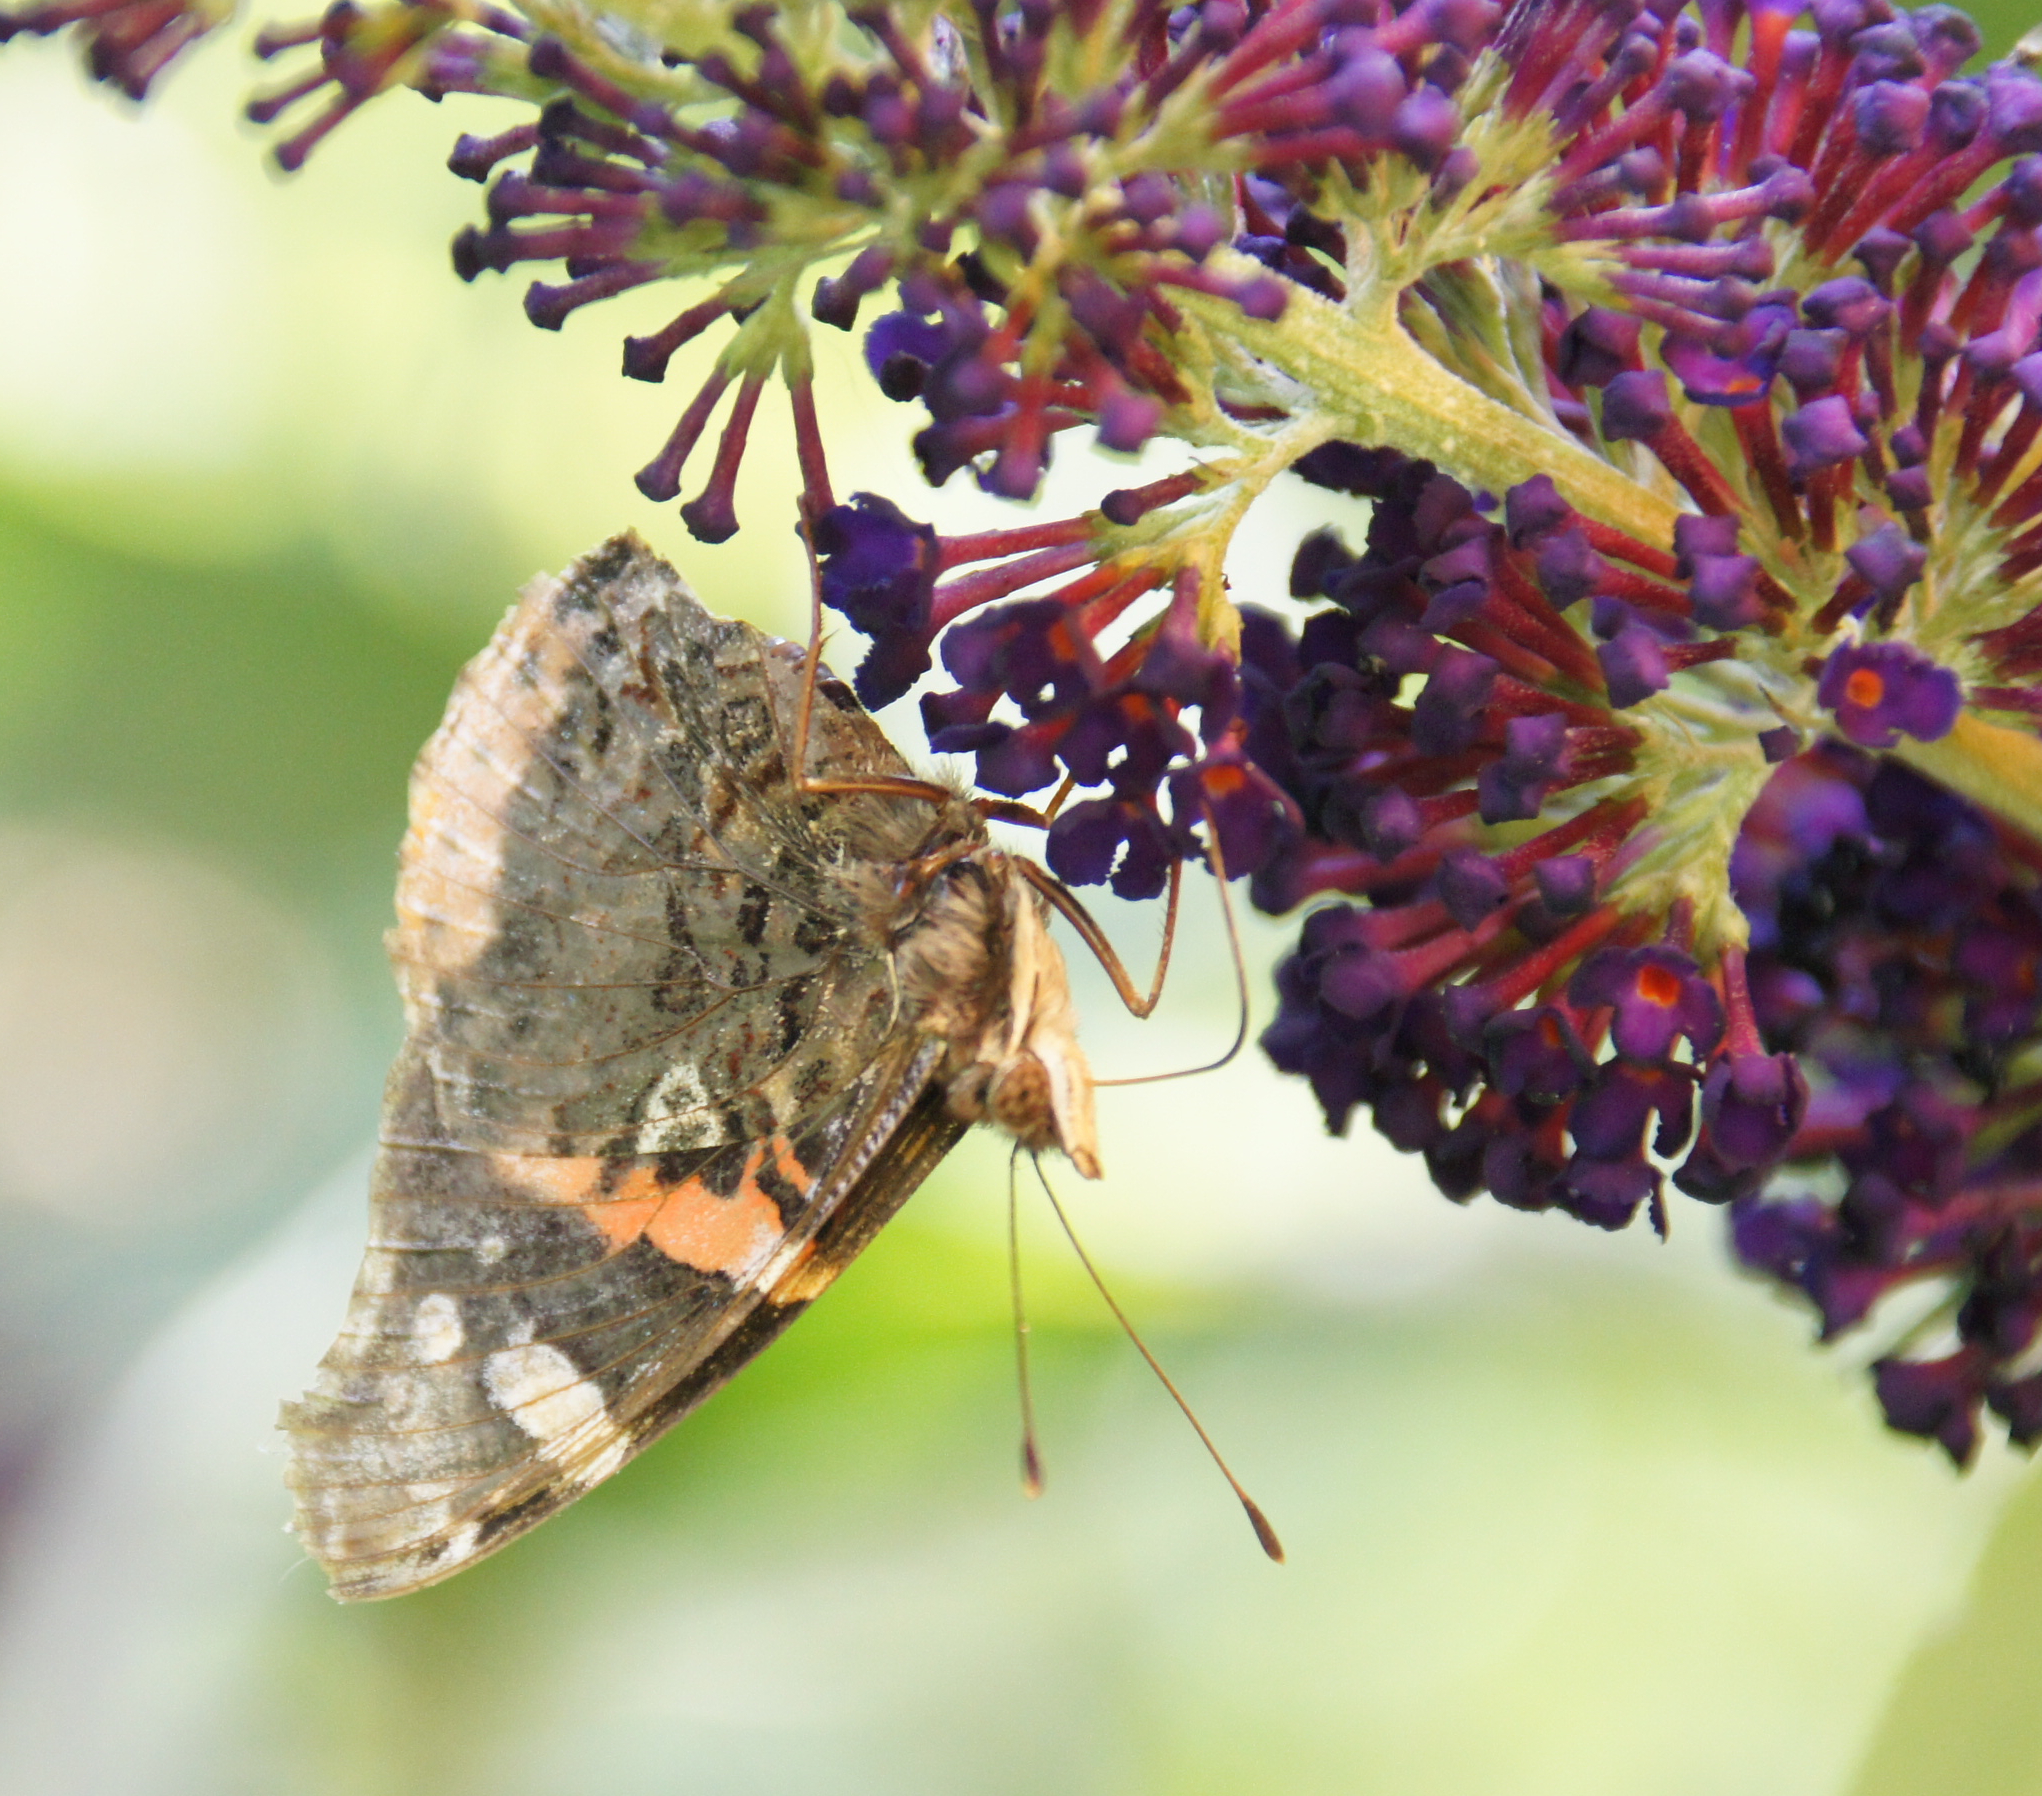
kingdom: Animalia
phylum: Arthropoda
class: Insecta
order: Lepidoptera
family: Nymphalidae
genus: Vanessa
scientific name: Vanessa atalanta
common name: Red admiral
